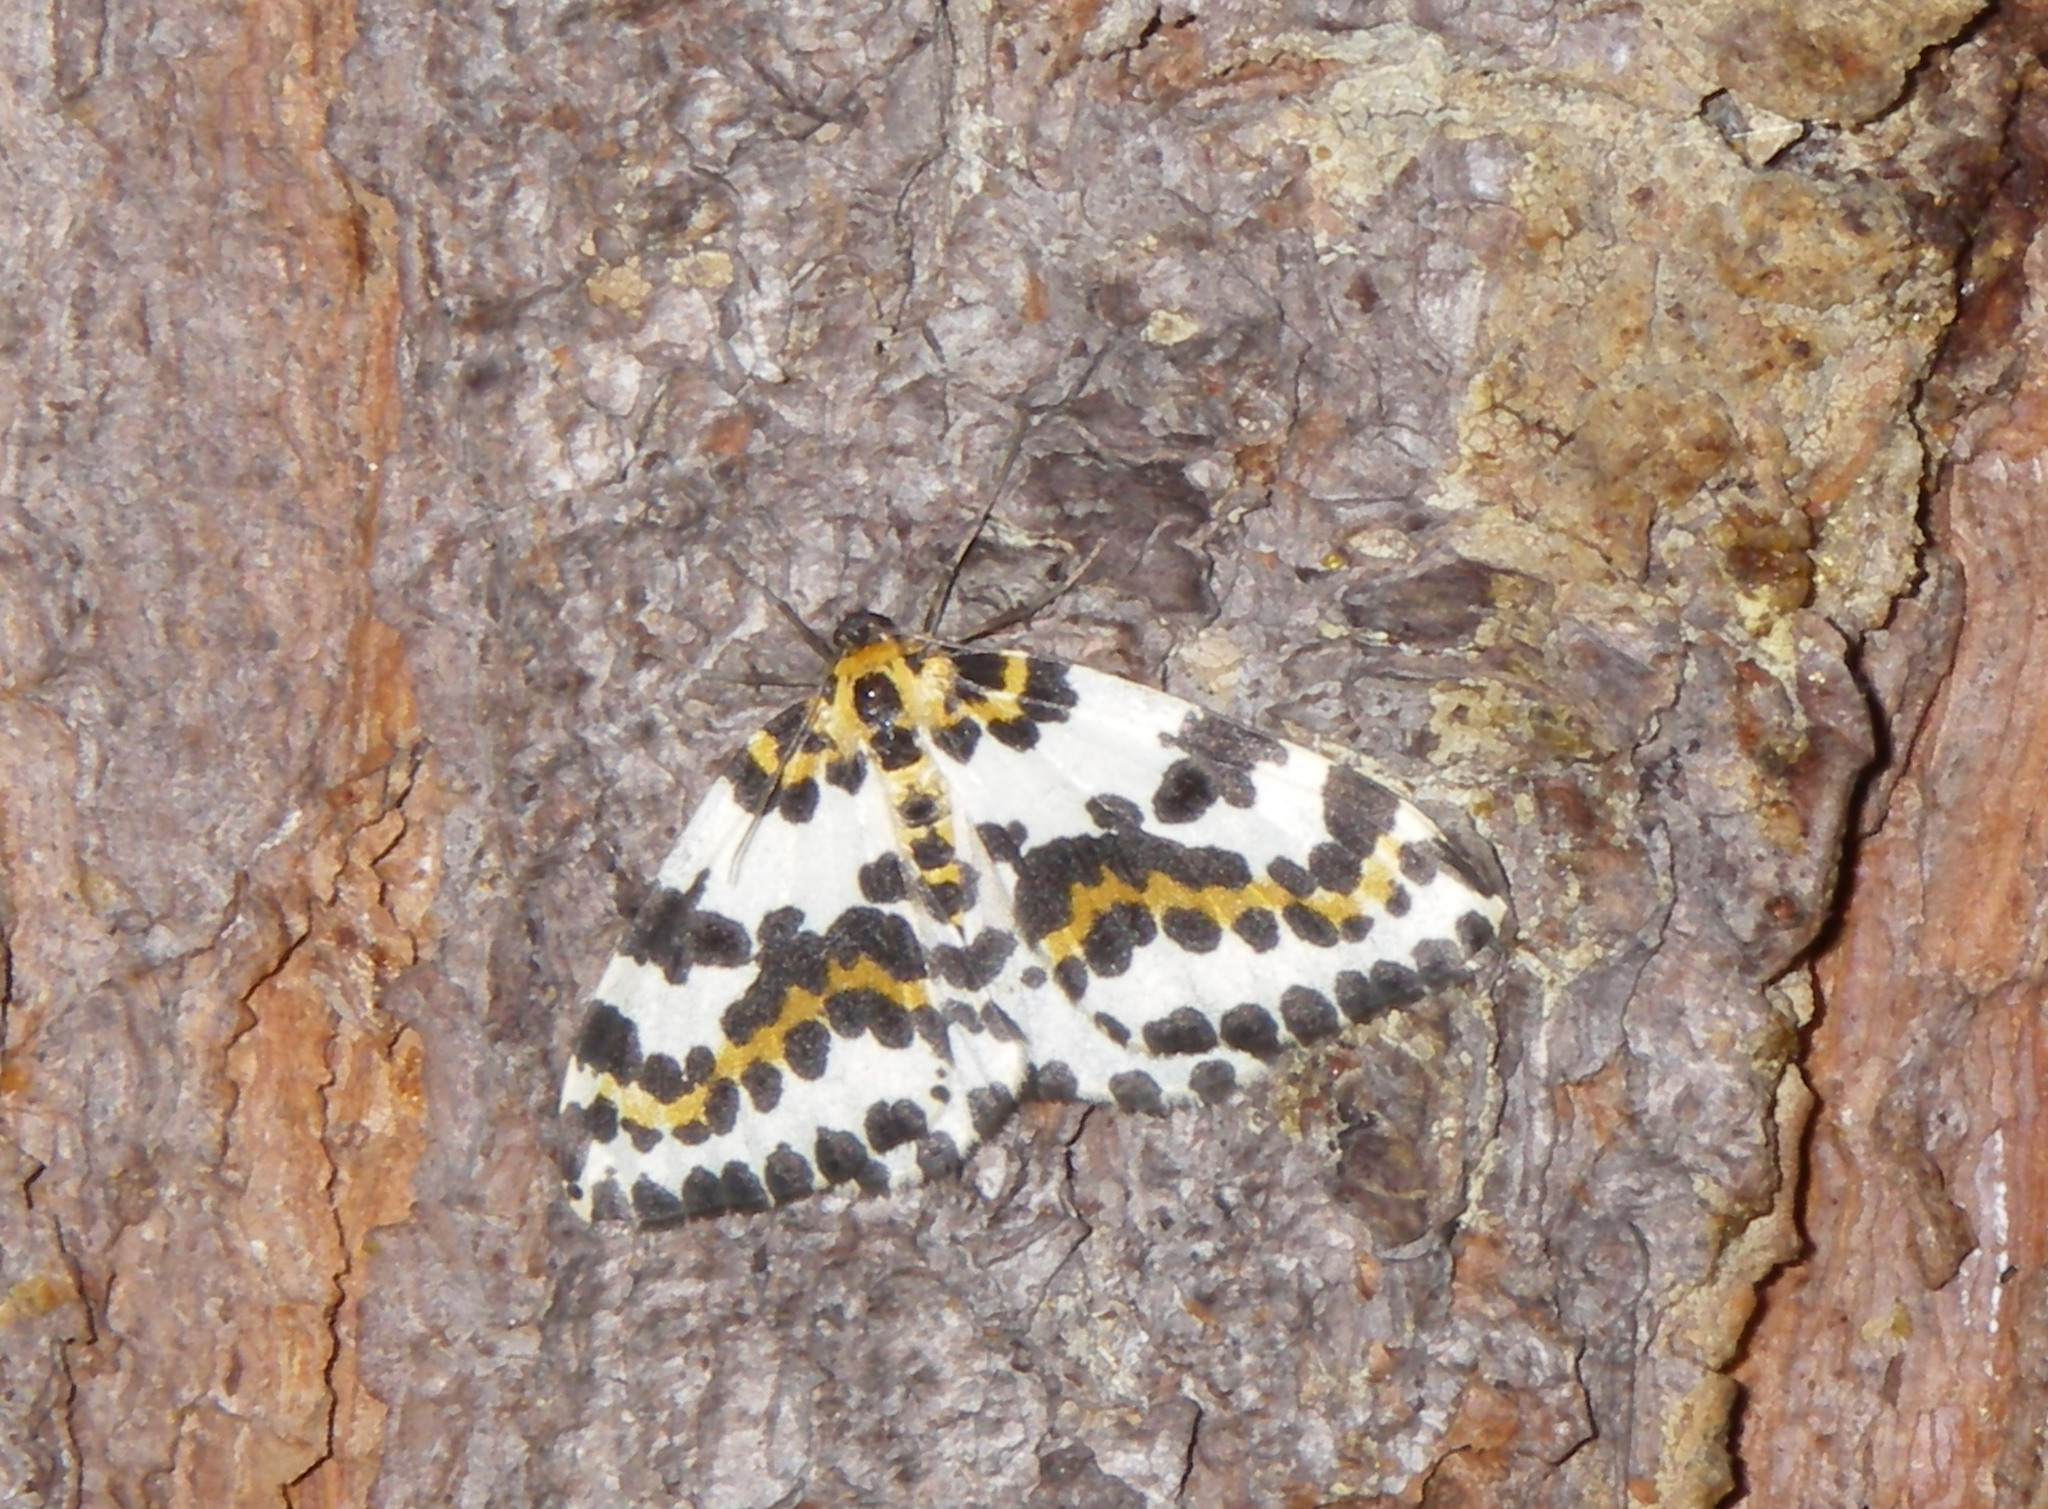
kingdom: Animalia
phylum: Arthropoda
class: Insecta
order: Lepidoptera
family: Geometridae
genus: Abraxas
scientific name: Abraxas grossulariata
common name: Magpie
